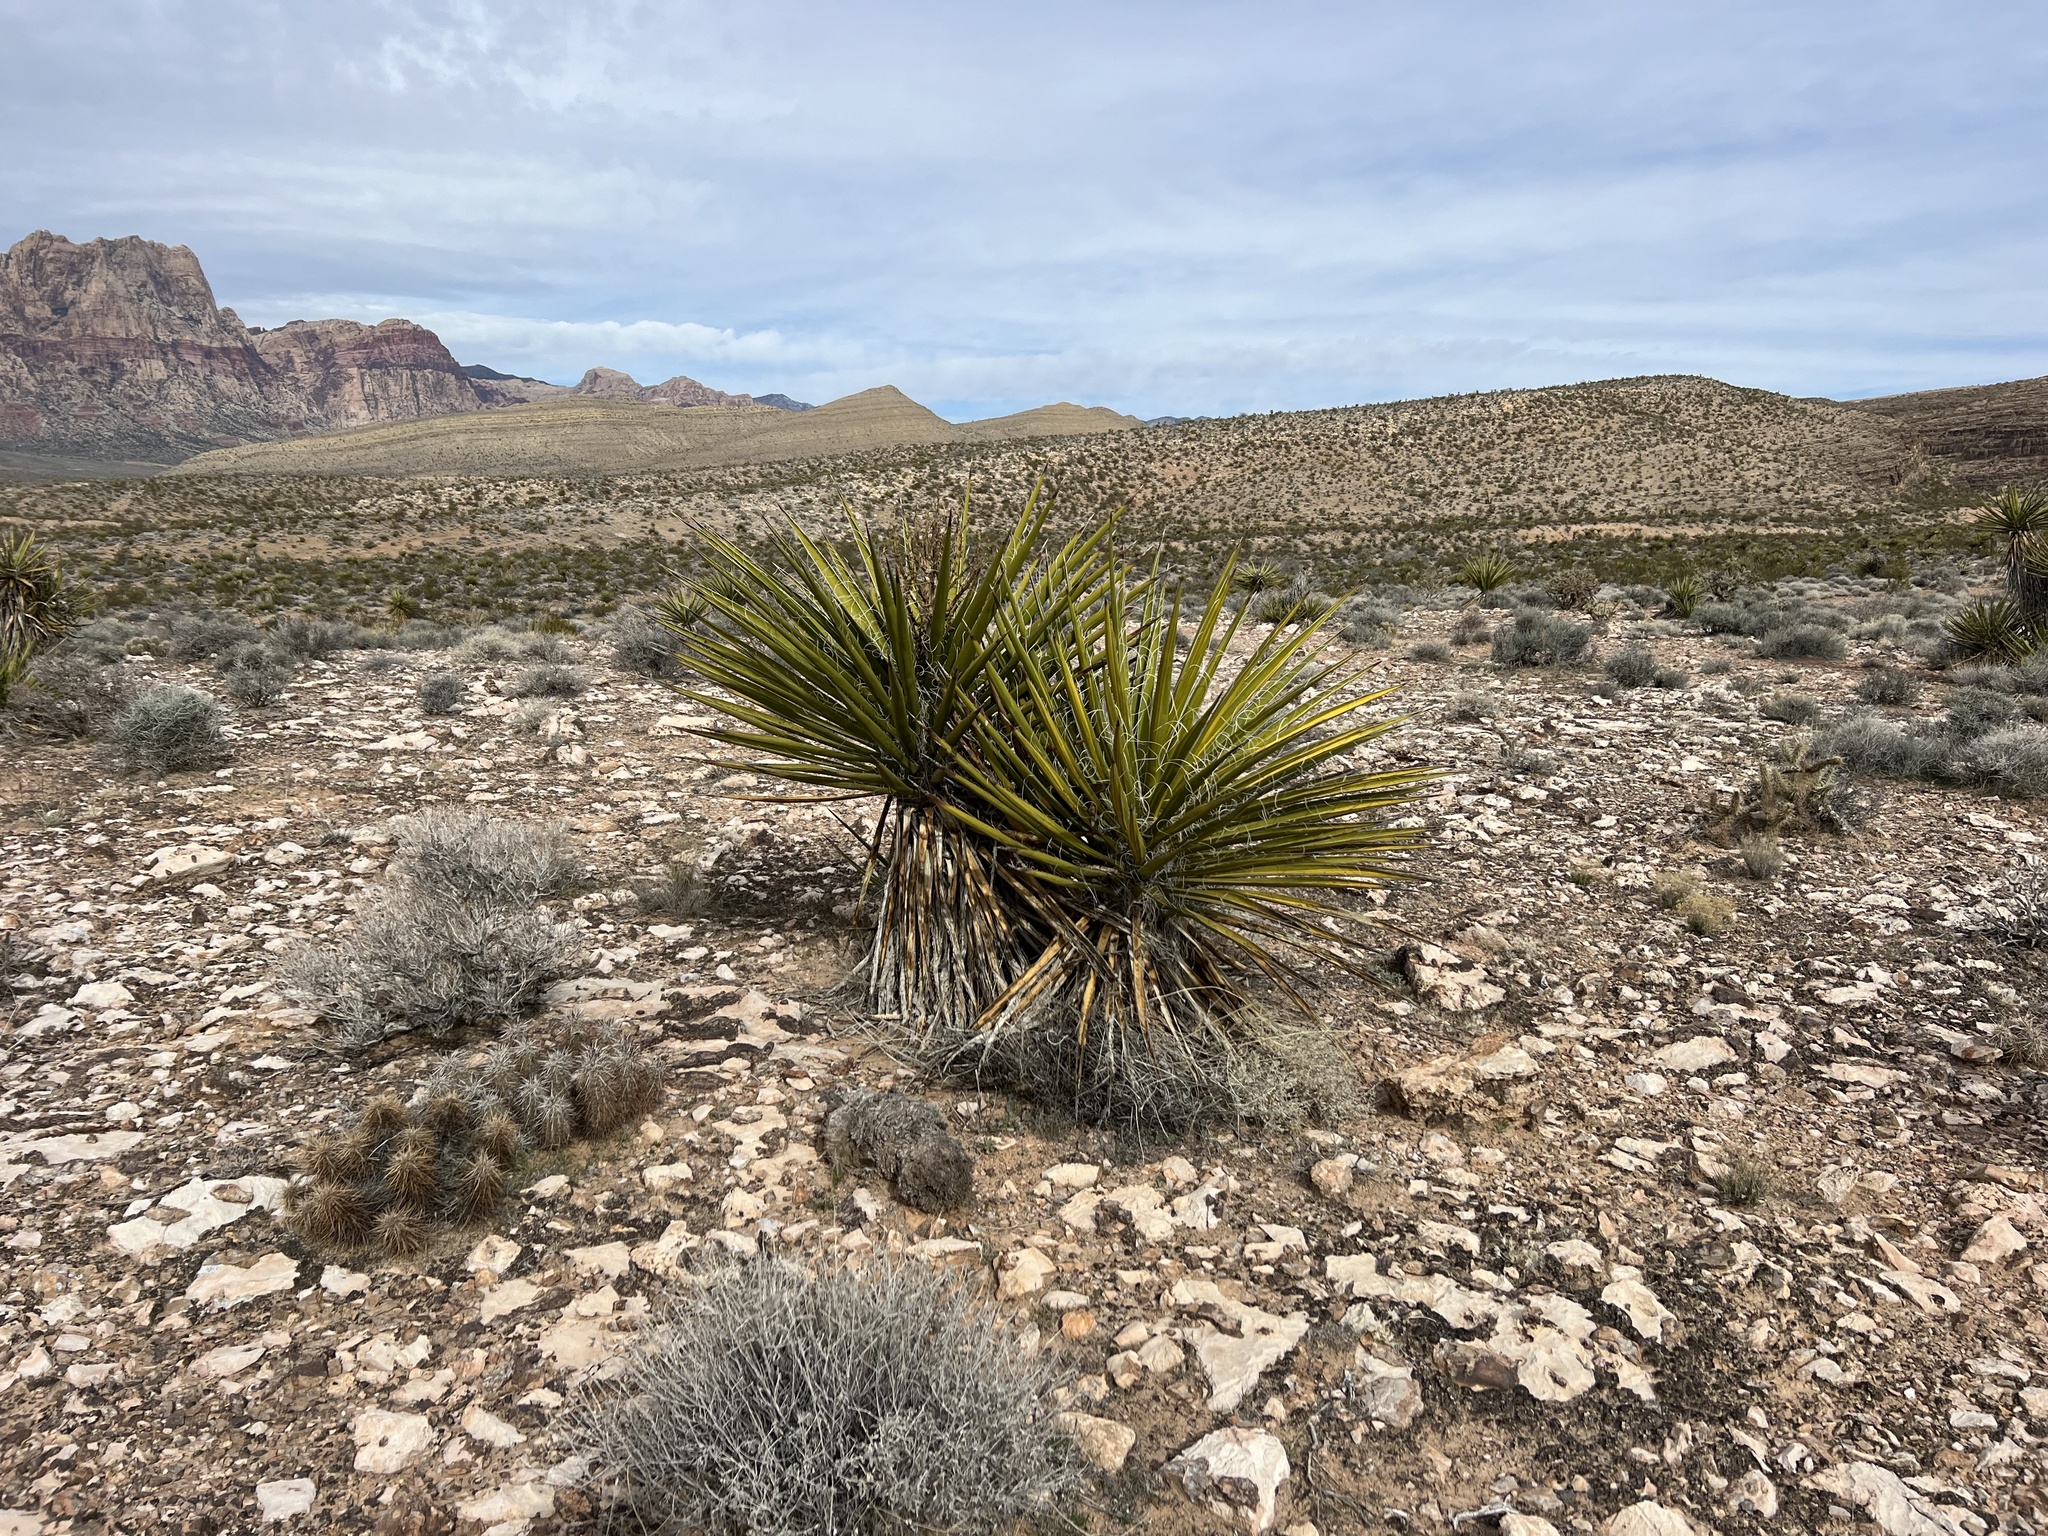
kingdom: Plantae
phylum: Tracheophyta
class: Liliopsida
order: Asparagales
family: Asparagaceae
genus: Yucca
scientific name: Yucca schidigera
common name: Mojave yucca
